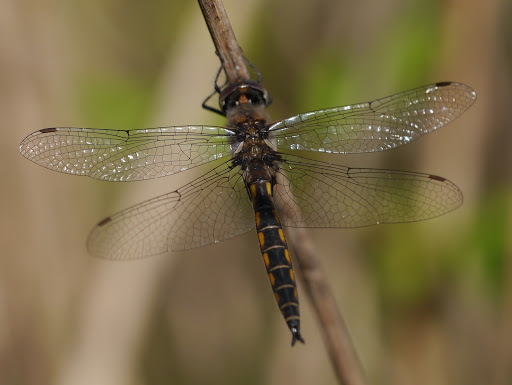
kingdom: Animalia
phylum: Arthropoda
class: Insecta
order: Odonata
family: Corduliidae
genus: Epitheca
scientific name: Epitheca cynosura
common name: Common baskettail
